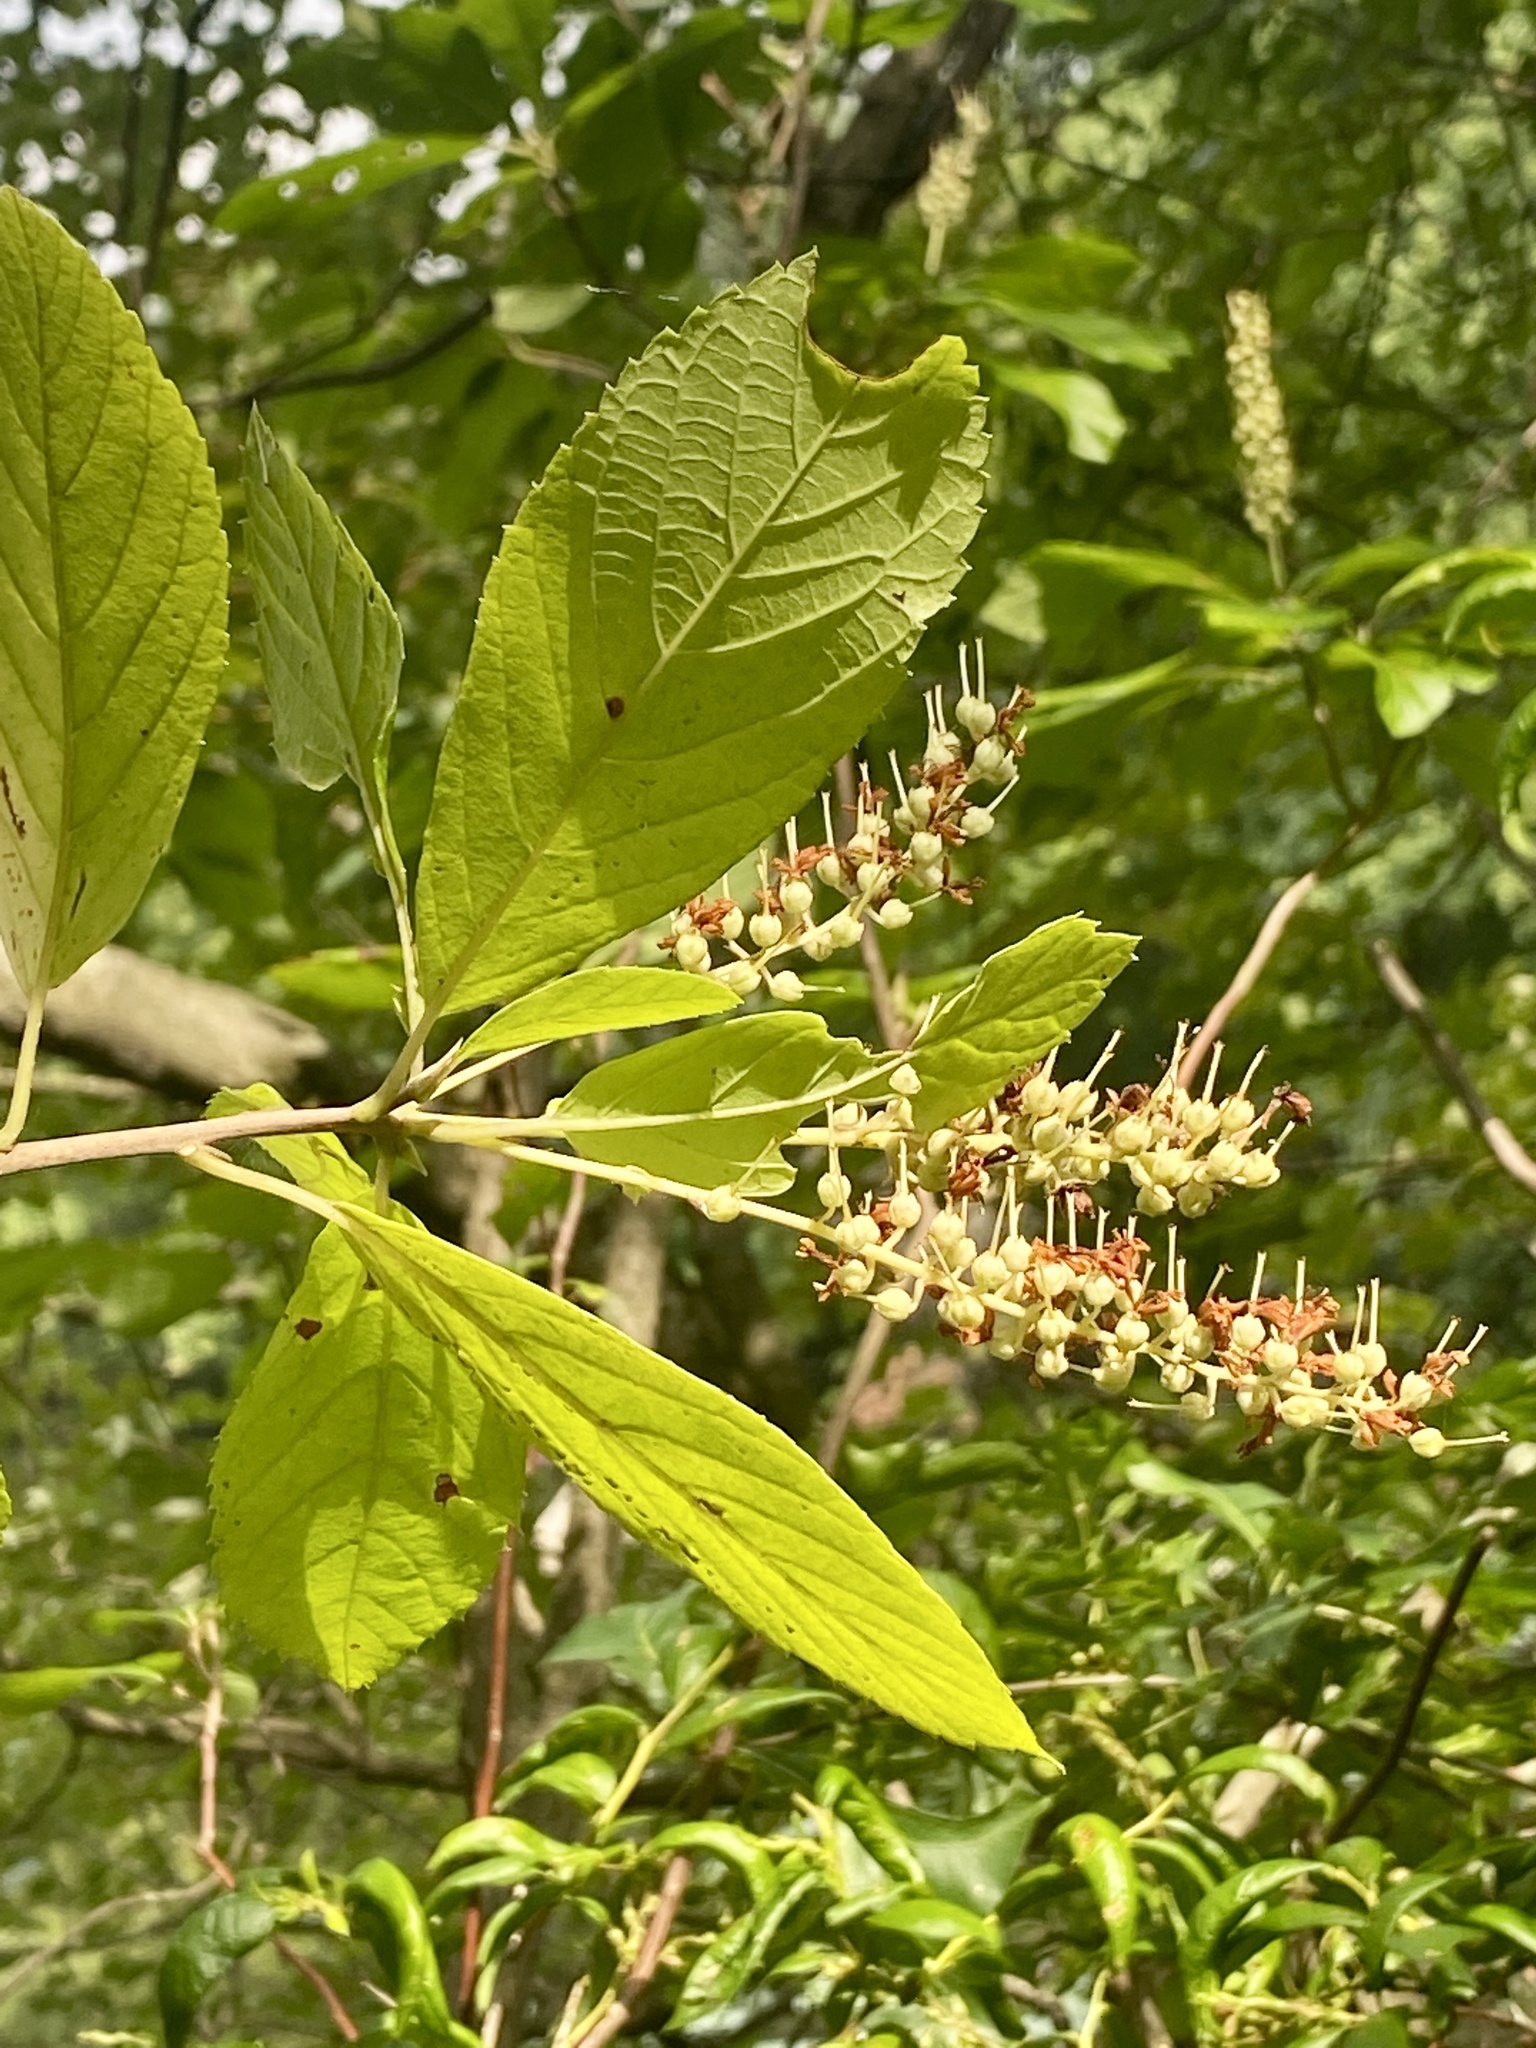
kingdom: Plantae
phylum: Tracheophyta
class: Magnoliopsida
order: Ericales
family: Clethraceae
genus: Clethra
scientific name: Clethra alnifolia
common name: Sweet pepperbush
